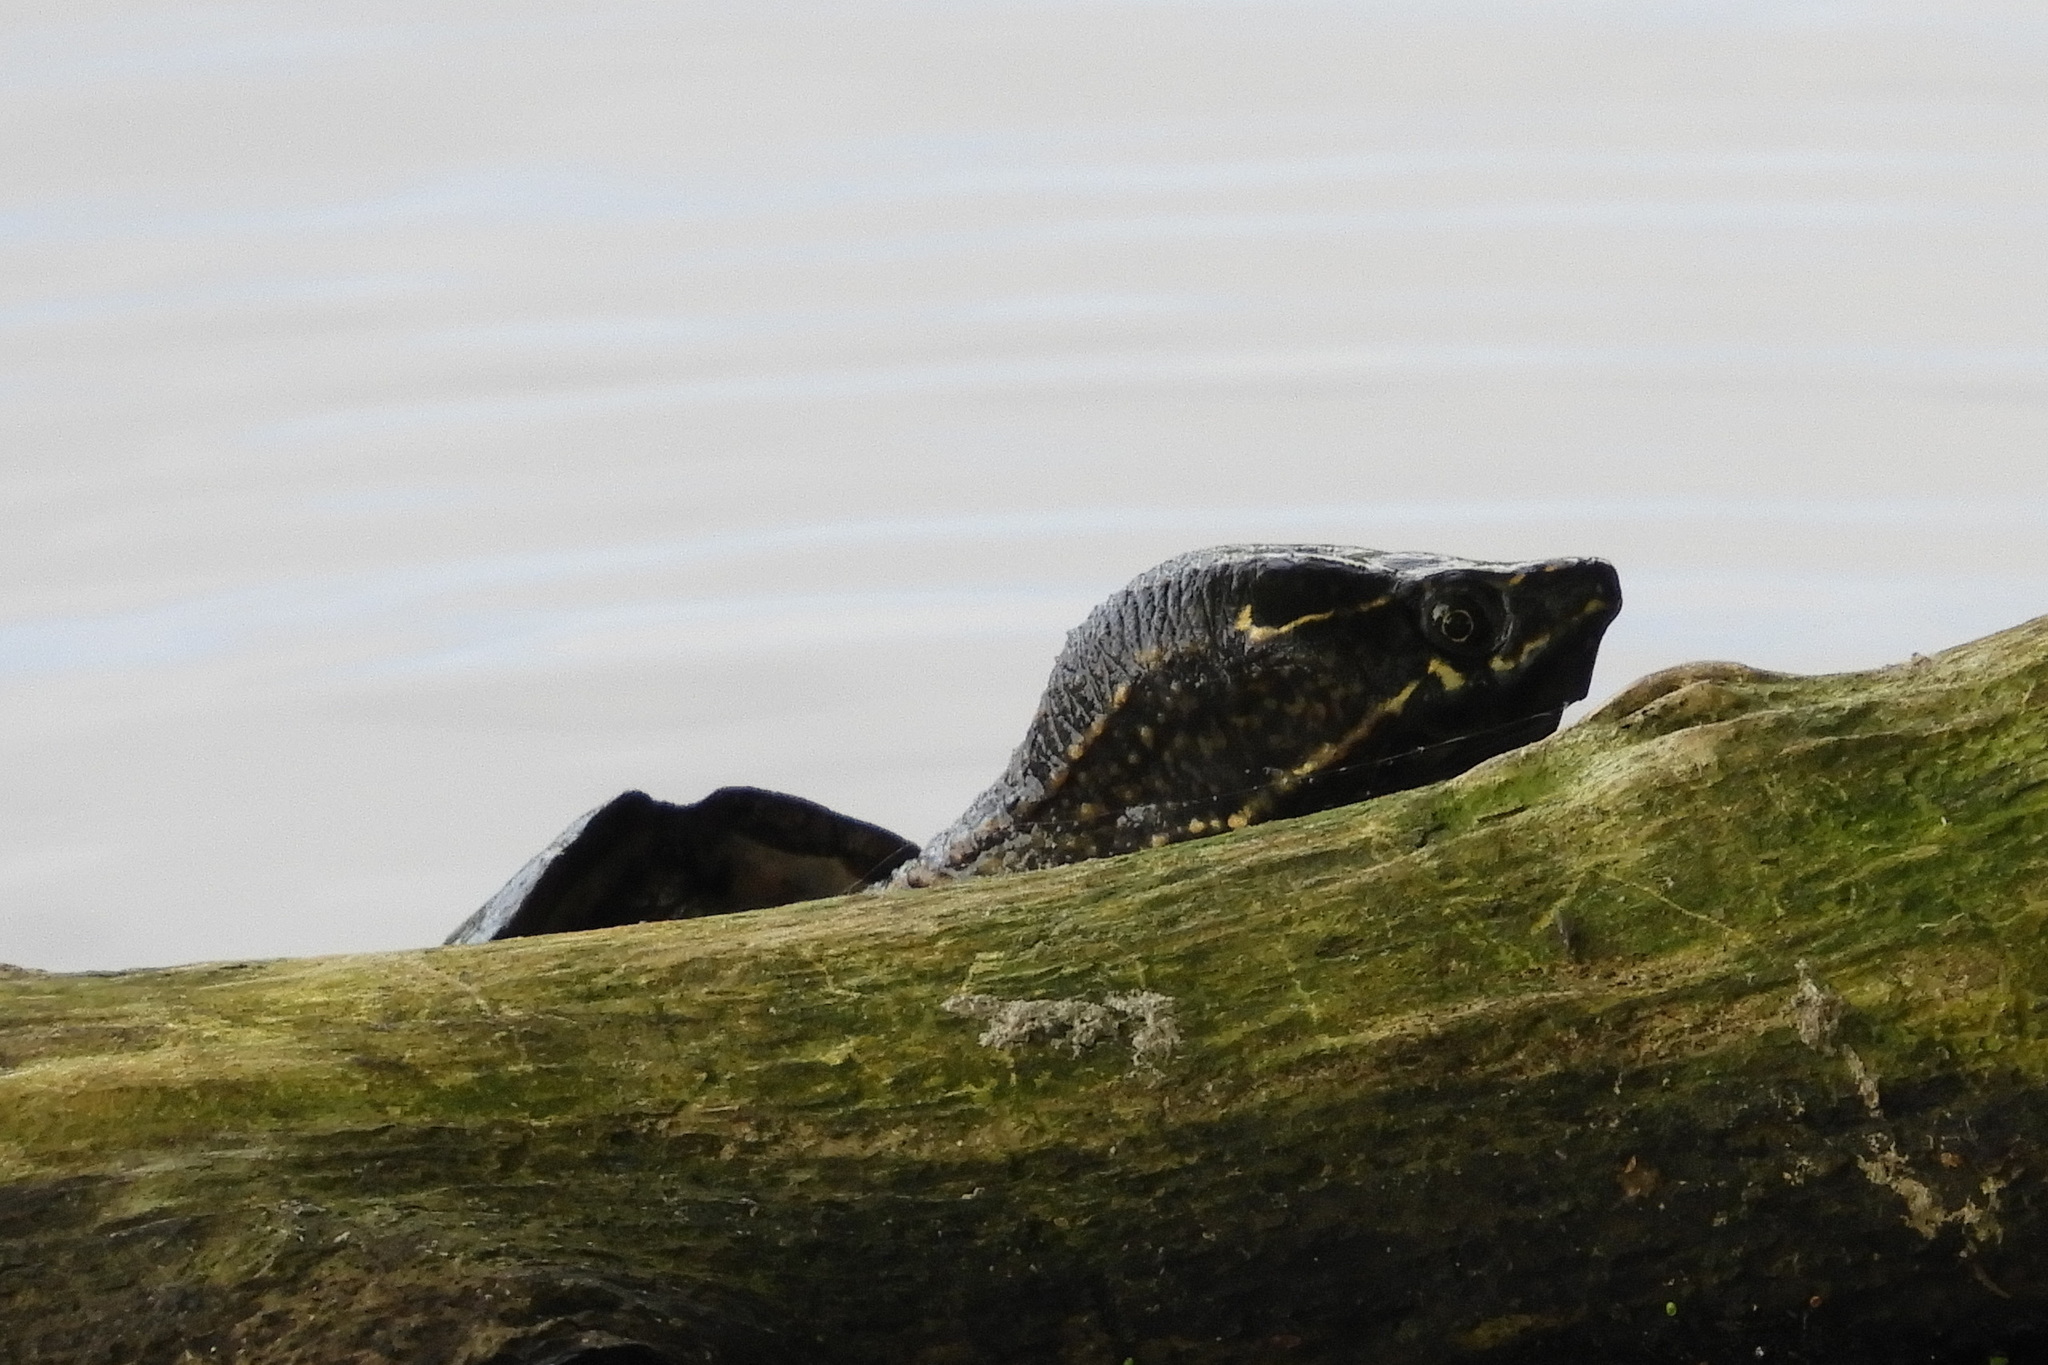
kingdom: Animalia
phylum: Chordata
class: Testudines
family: Kinosternidae
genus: Sternotherus
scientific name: Sternotherus odoratus
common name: Common musk turtle
